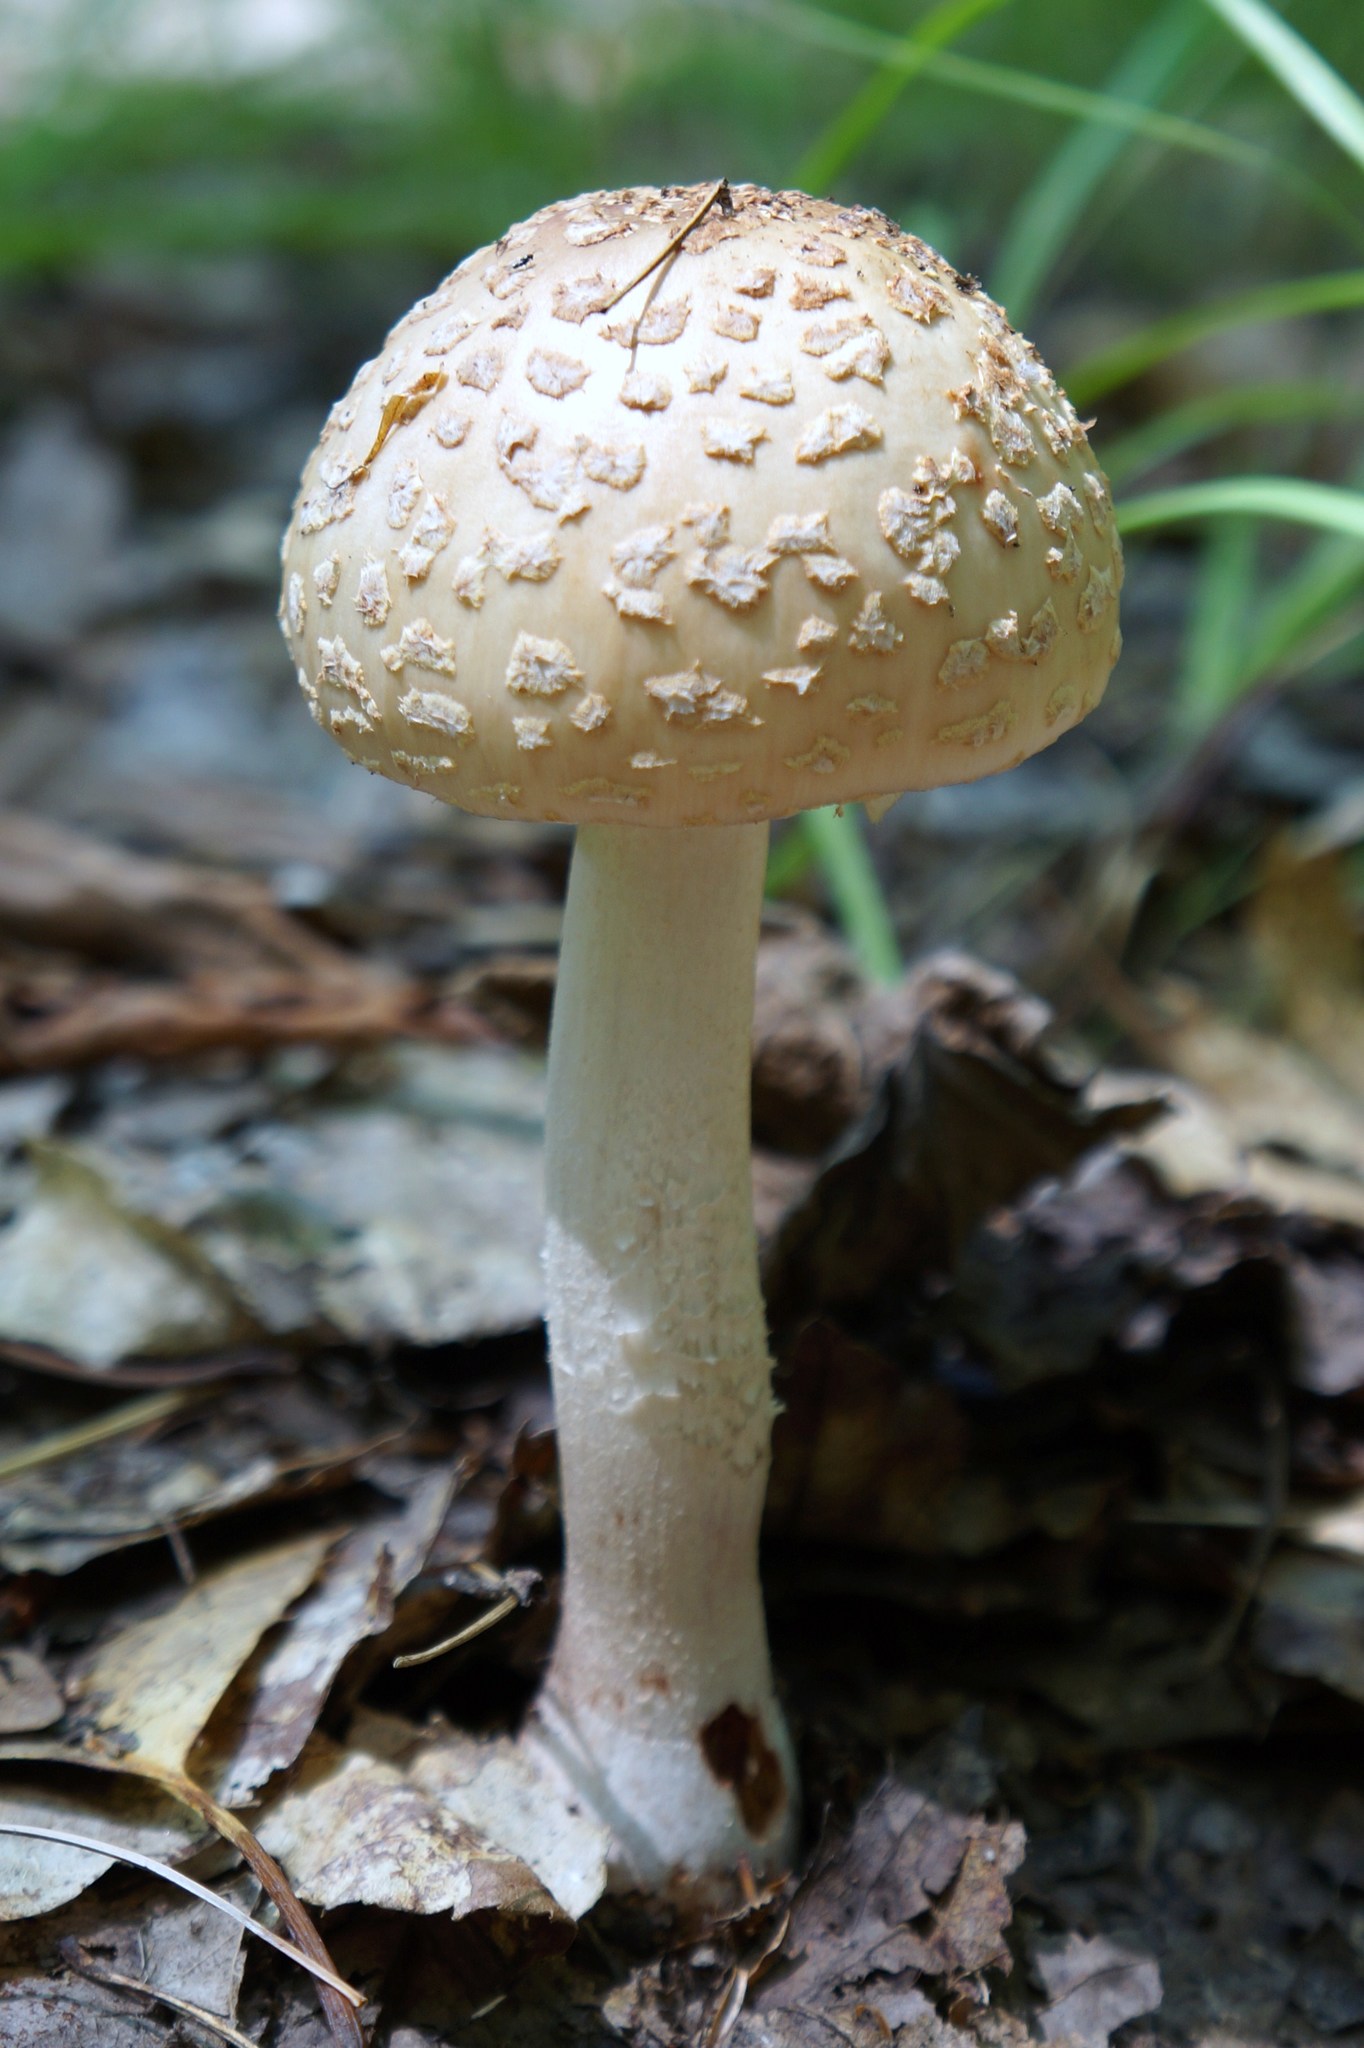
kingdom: Fungi
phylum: Basidiomycota
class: Agaricomycetes
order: Agaricales
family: Amanitaceae
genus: Amanita
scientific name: Amanita rubescens
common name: Blusher
